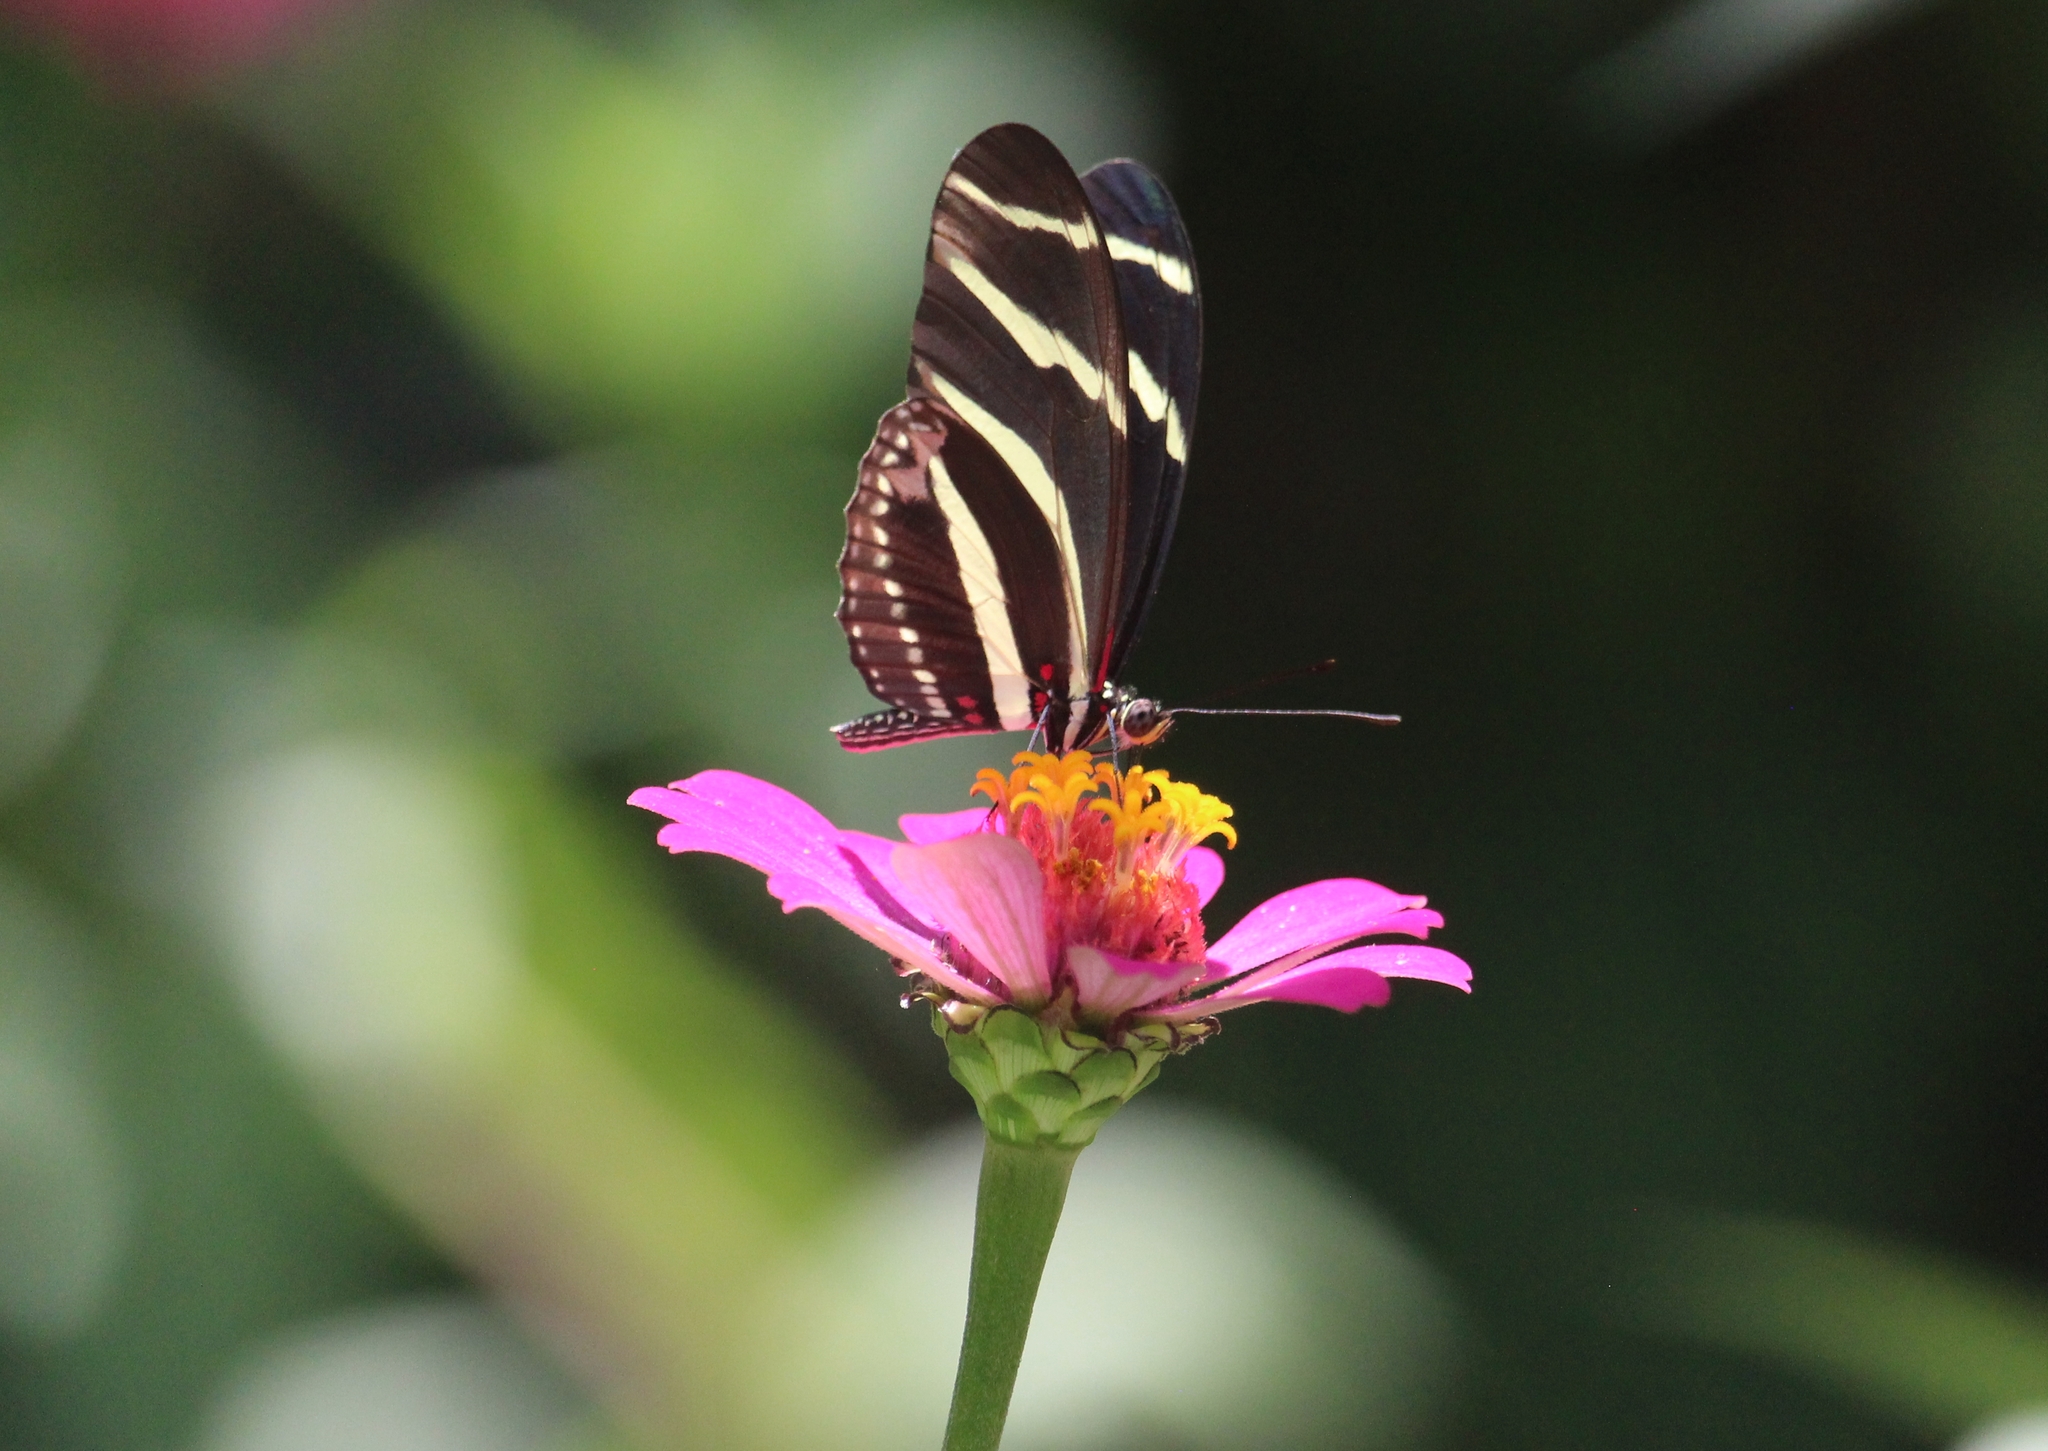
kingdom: Animalia
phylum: Arthropoda
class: Insecta
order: Lepidoptera
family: Nymphalidae
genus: Heliconius
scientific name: Heliconius charithonia
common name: Zebra long wing
